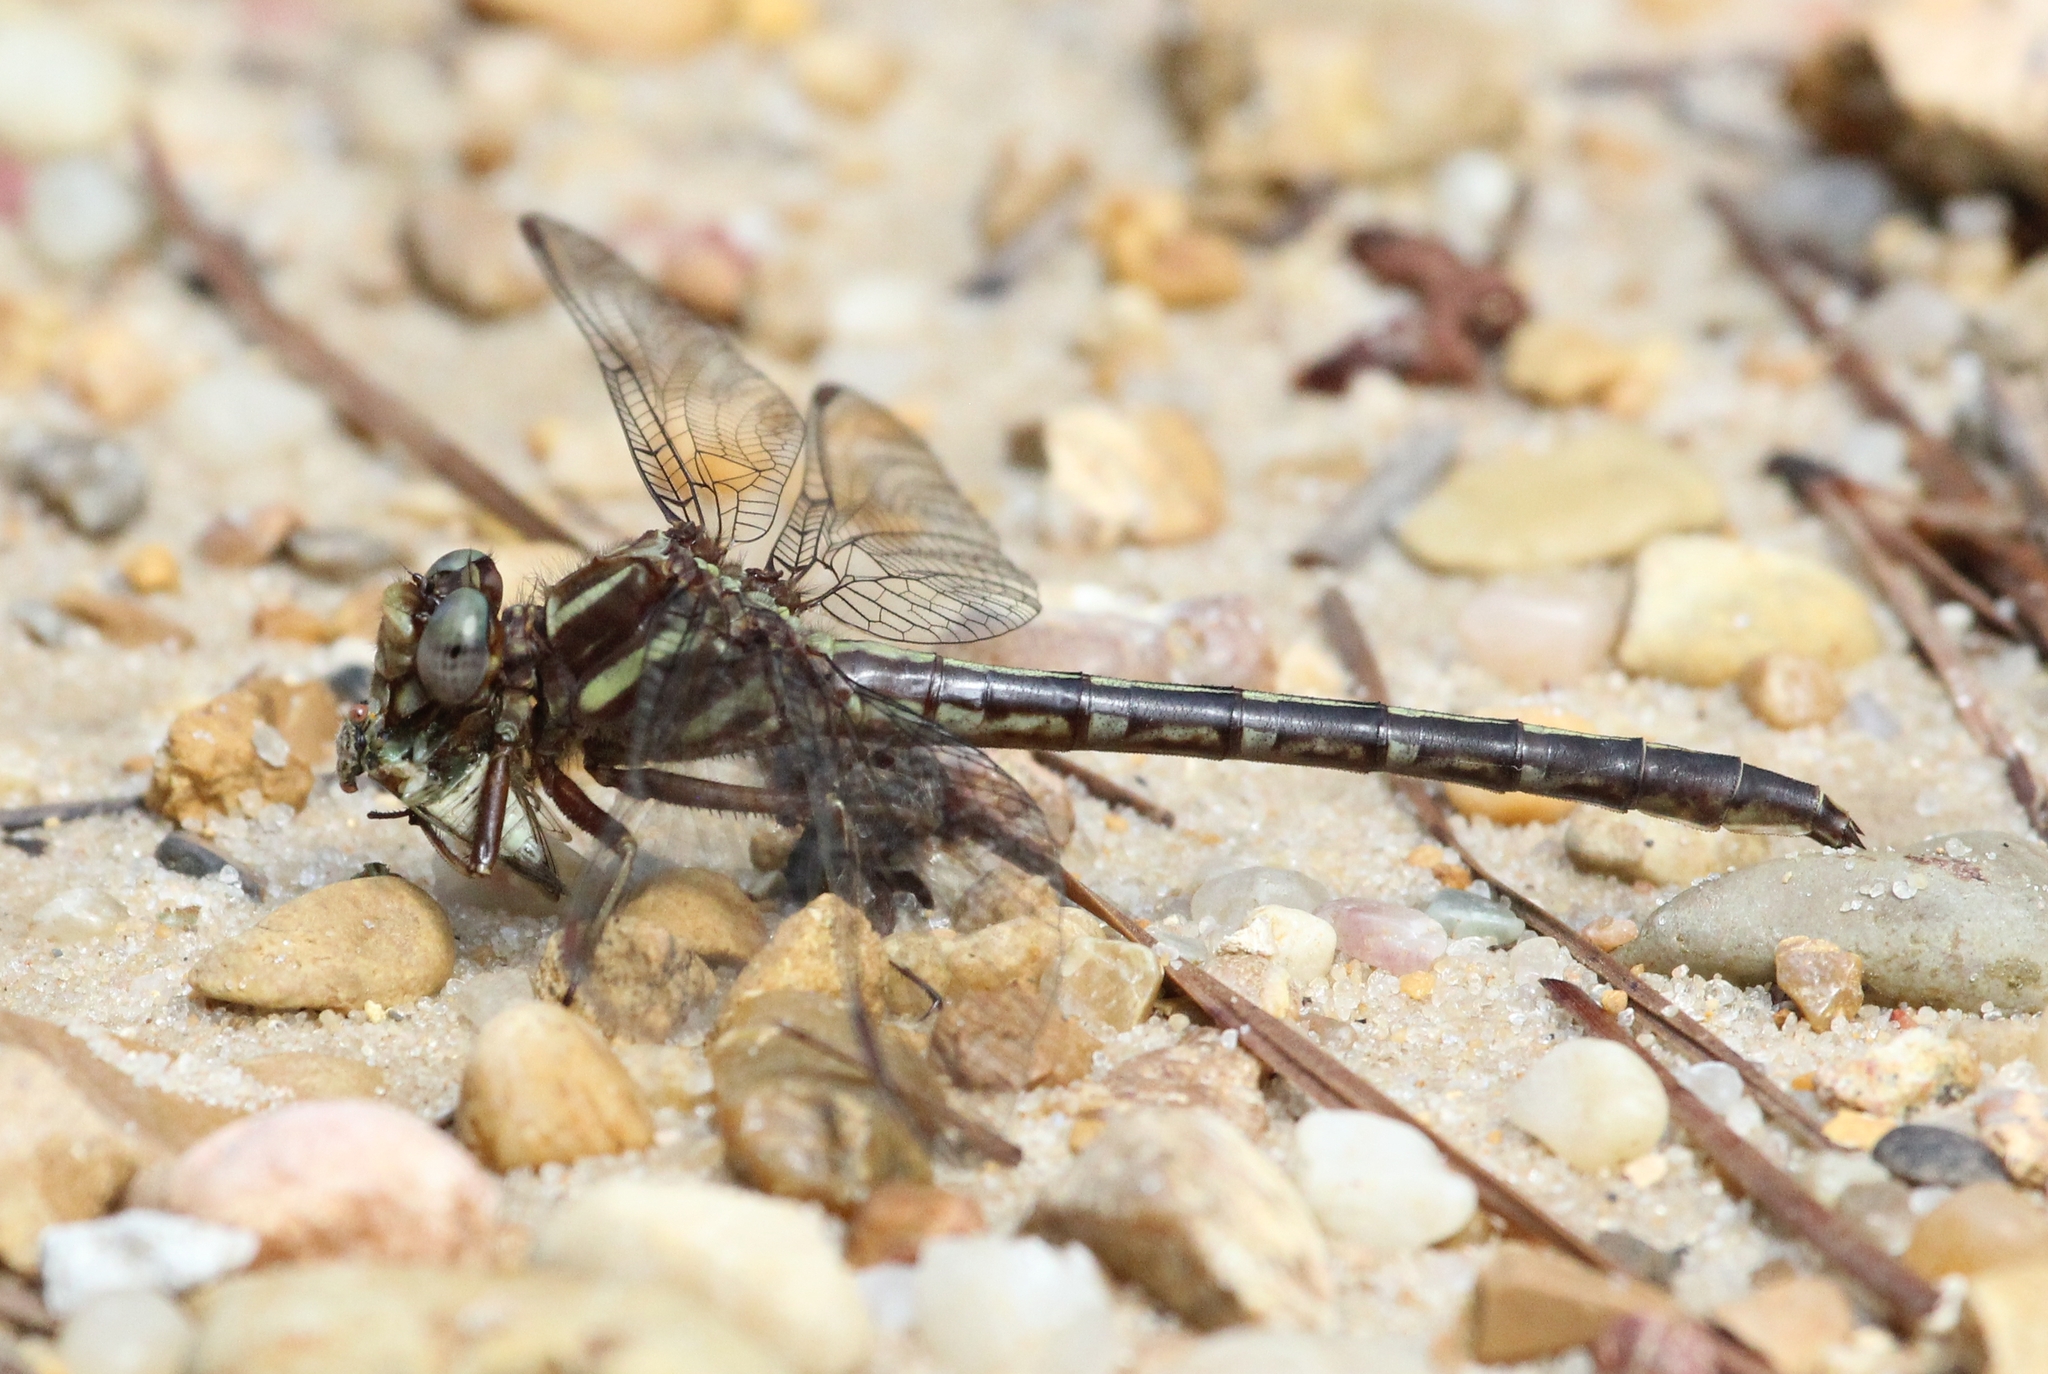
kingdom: Animalia
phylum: Arthropoda
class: Insecta
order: Odonata
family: Gomphidae
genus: Phanogomphus
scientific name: Phanogomphus lividus
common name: Ashy clubtail
